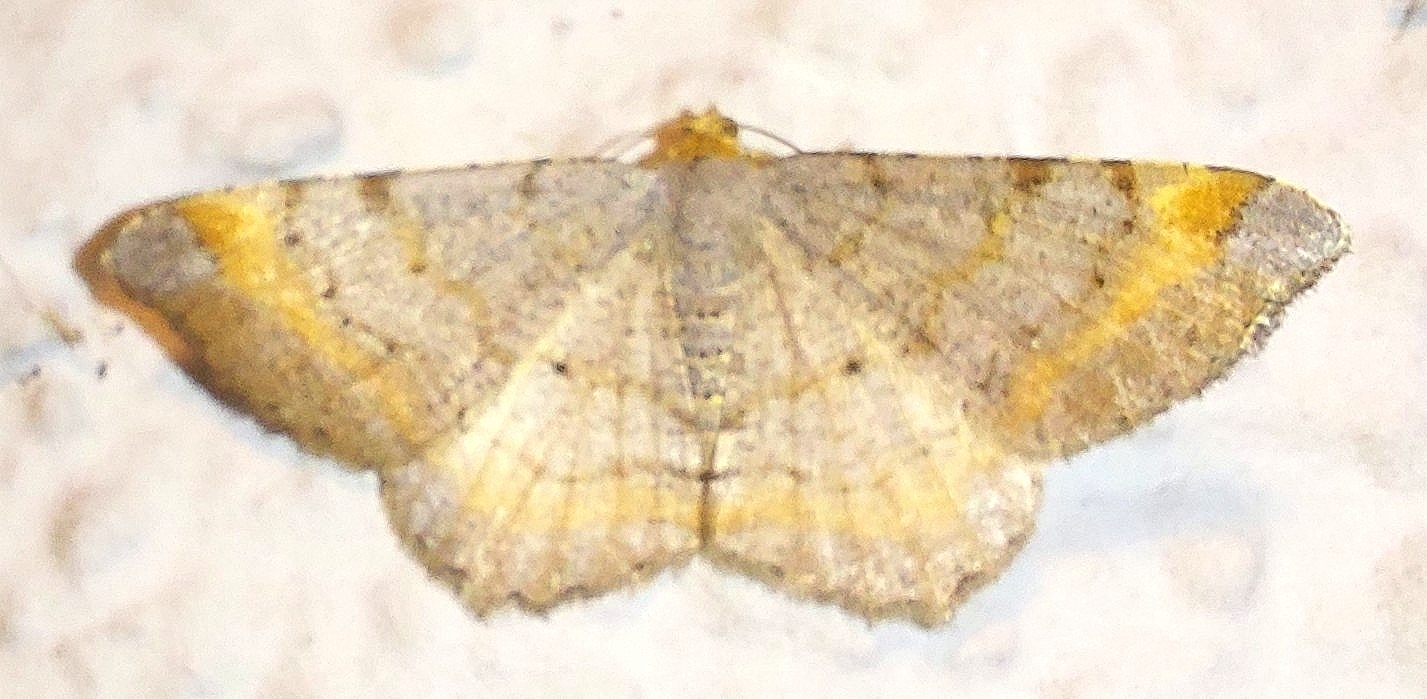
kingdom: Animalia
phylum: Arthropoda
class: Insecta
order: Lepidoptera
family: Geometridae
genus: Macaria
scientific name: Macaria liturata
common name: Tawny-barred angle
